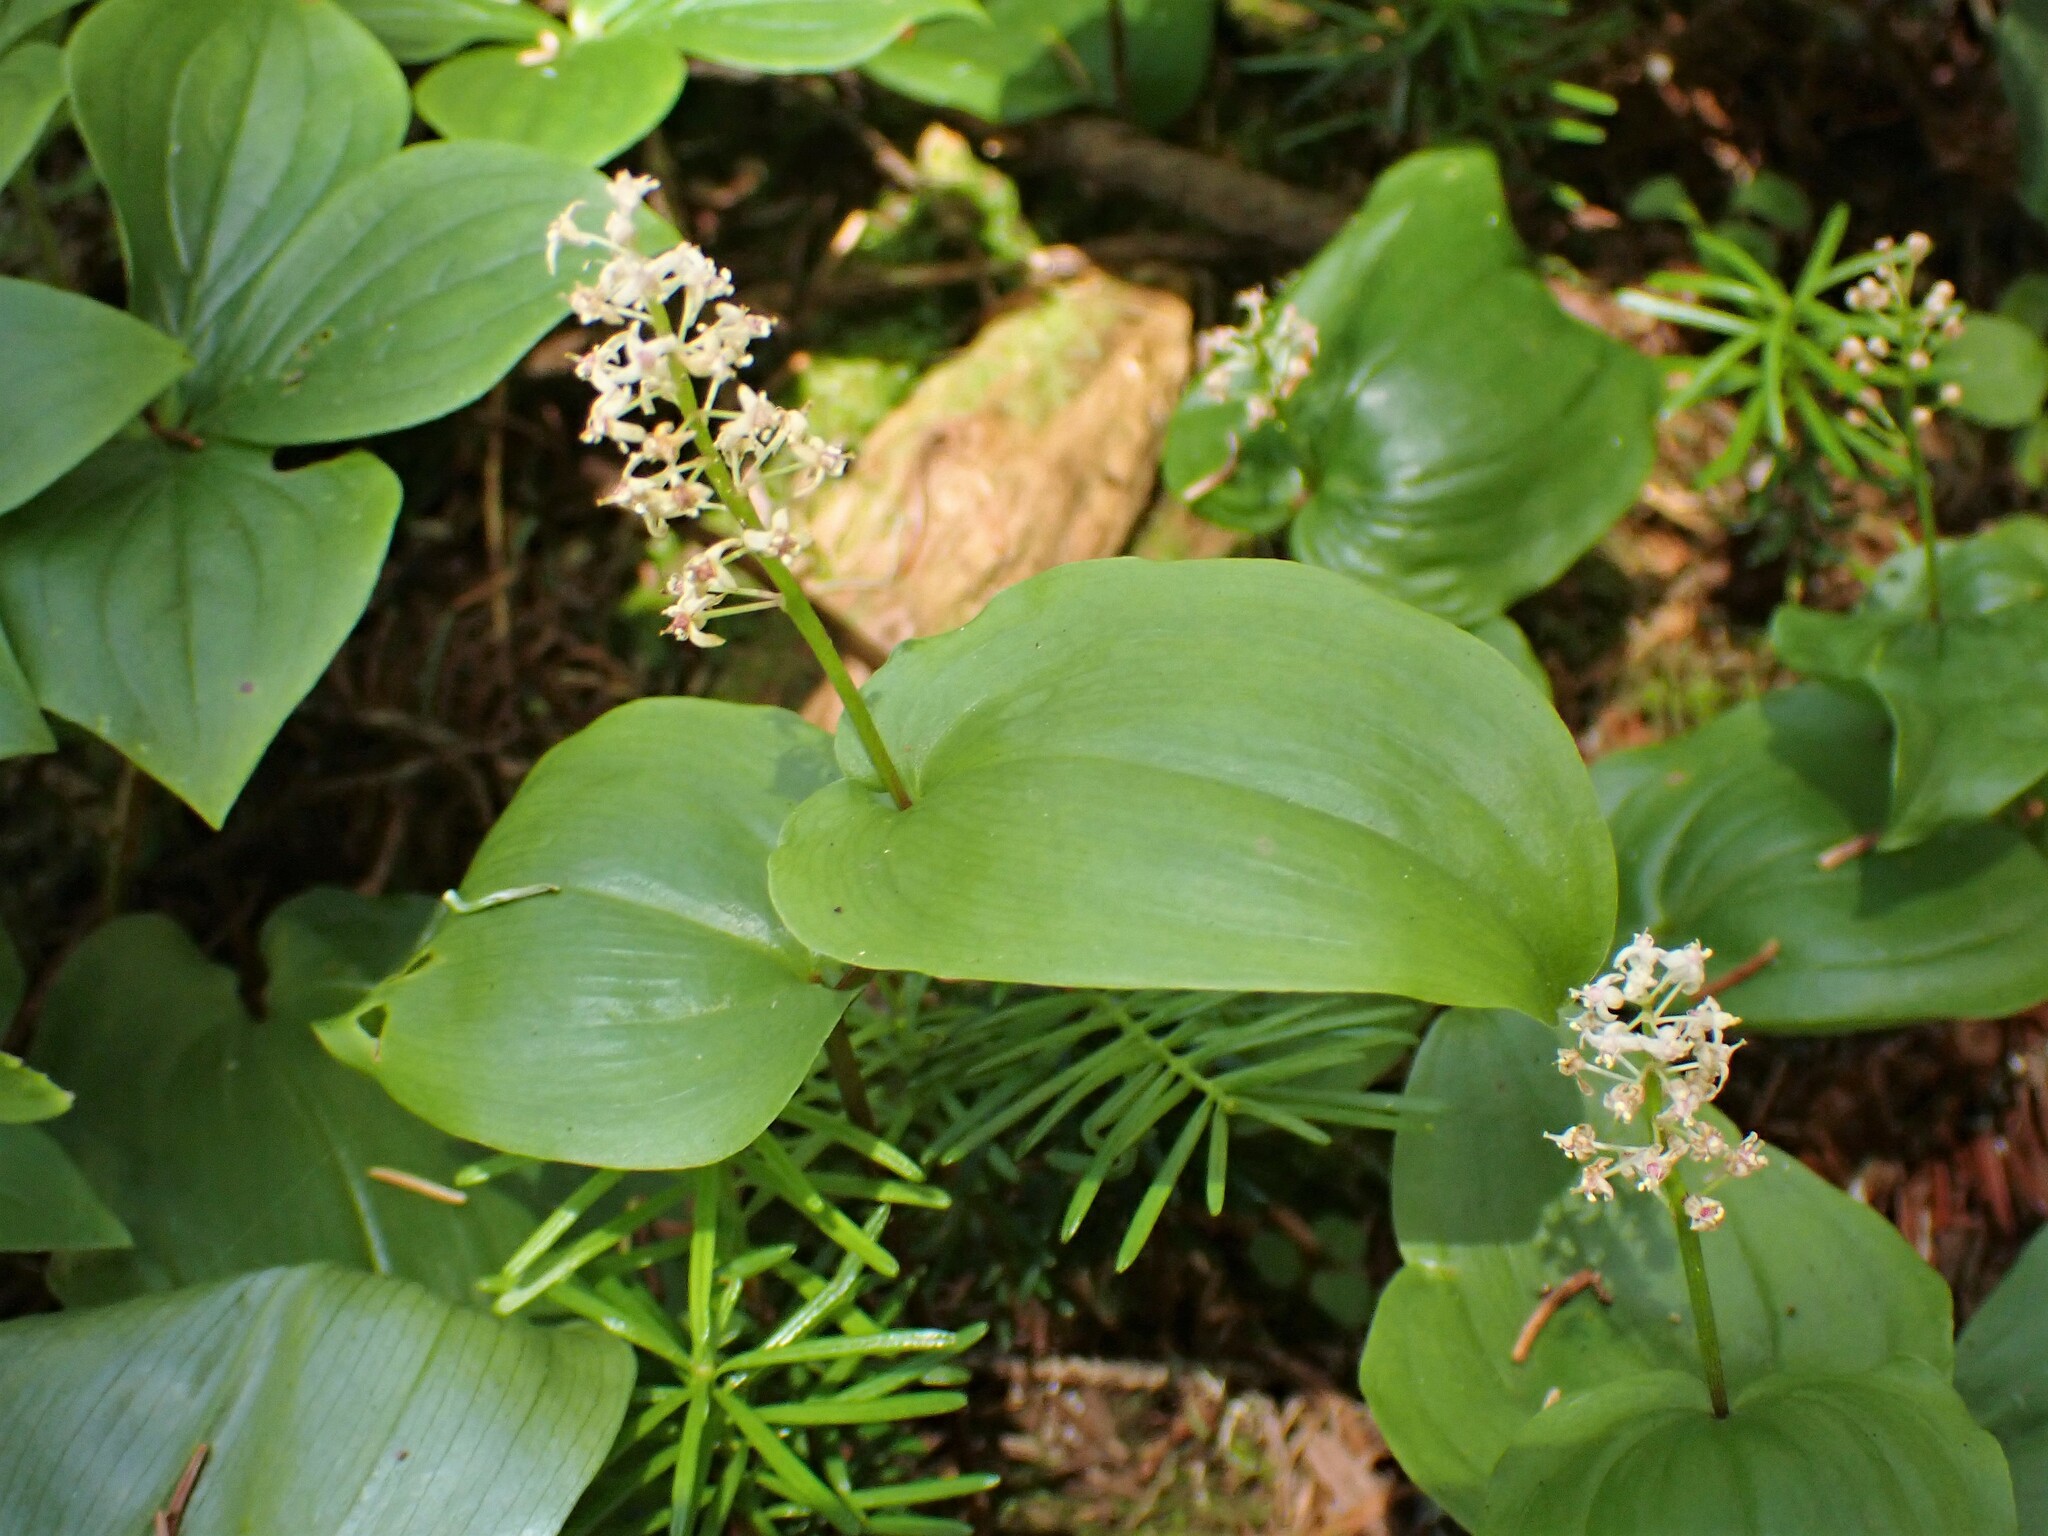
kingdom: Plantae
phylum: Tracheophyta
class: Liliopsida
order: Asparagales
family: Asparagaceae
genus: Maianthemum
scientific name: Maianthemum canadense
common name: False lily-of-the-valley
